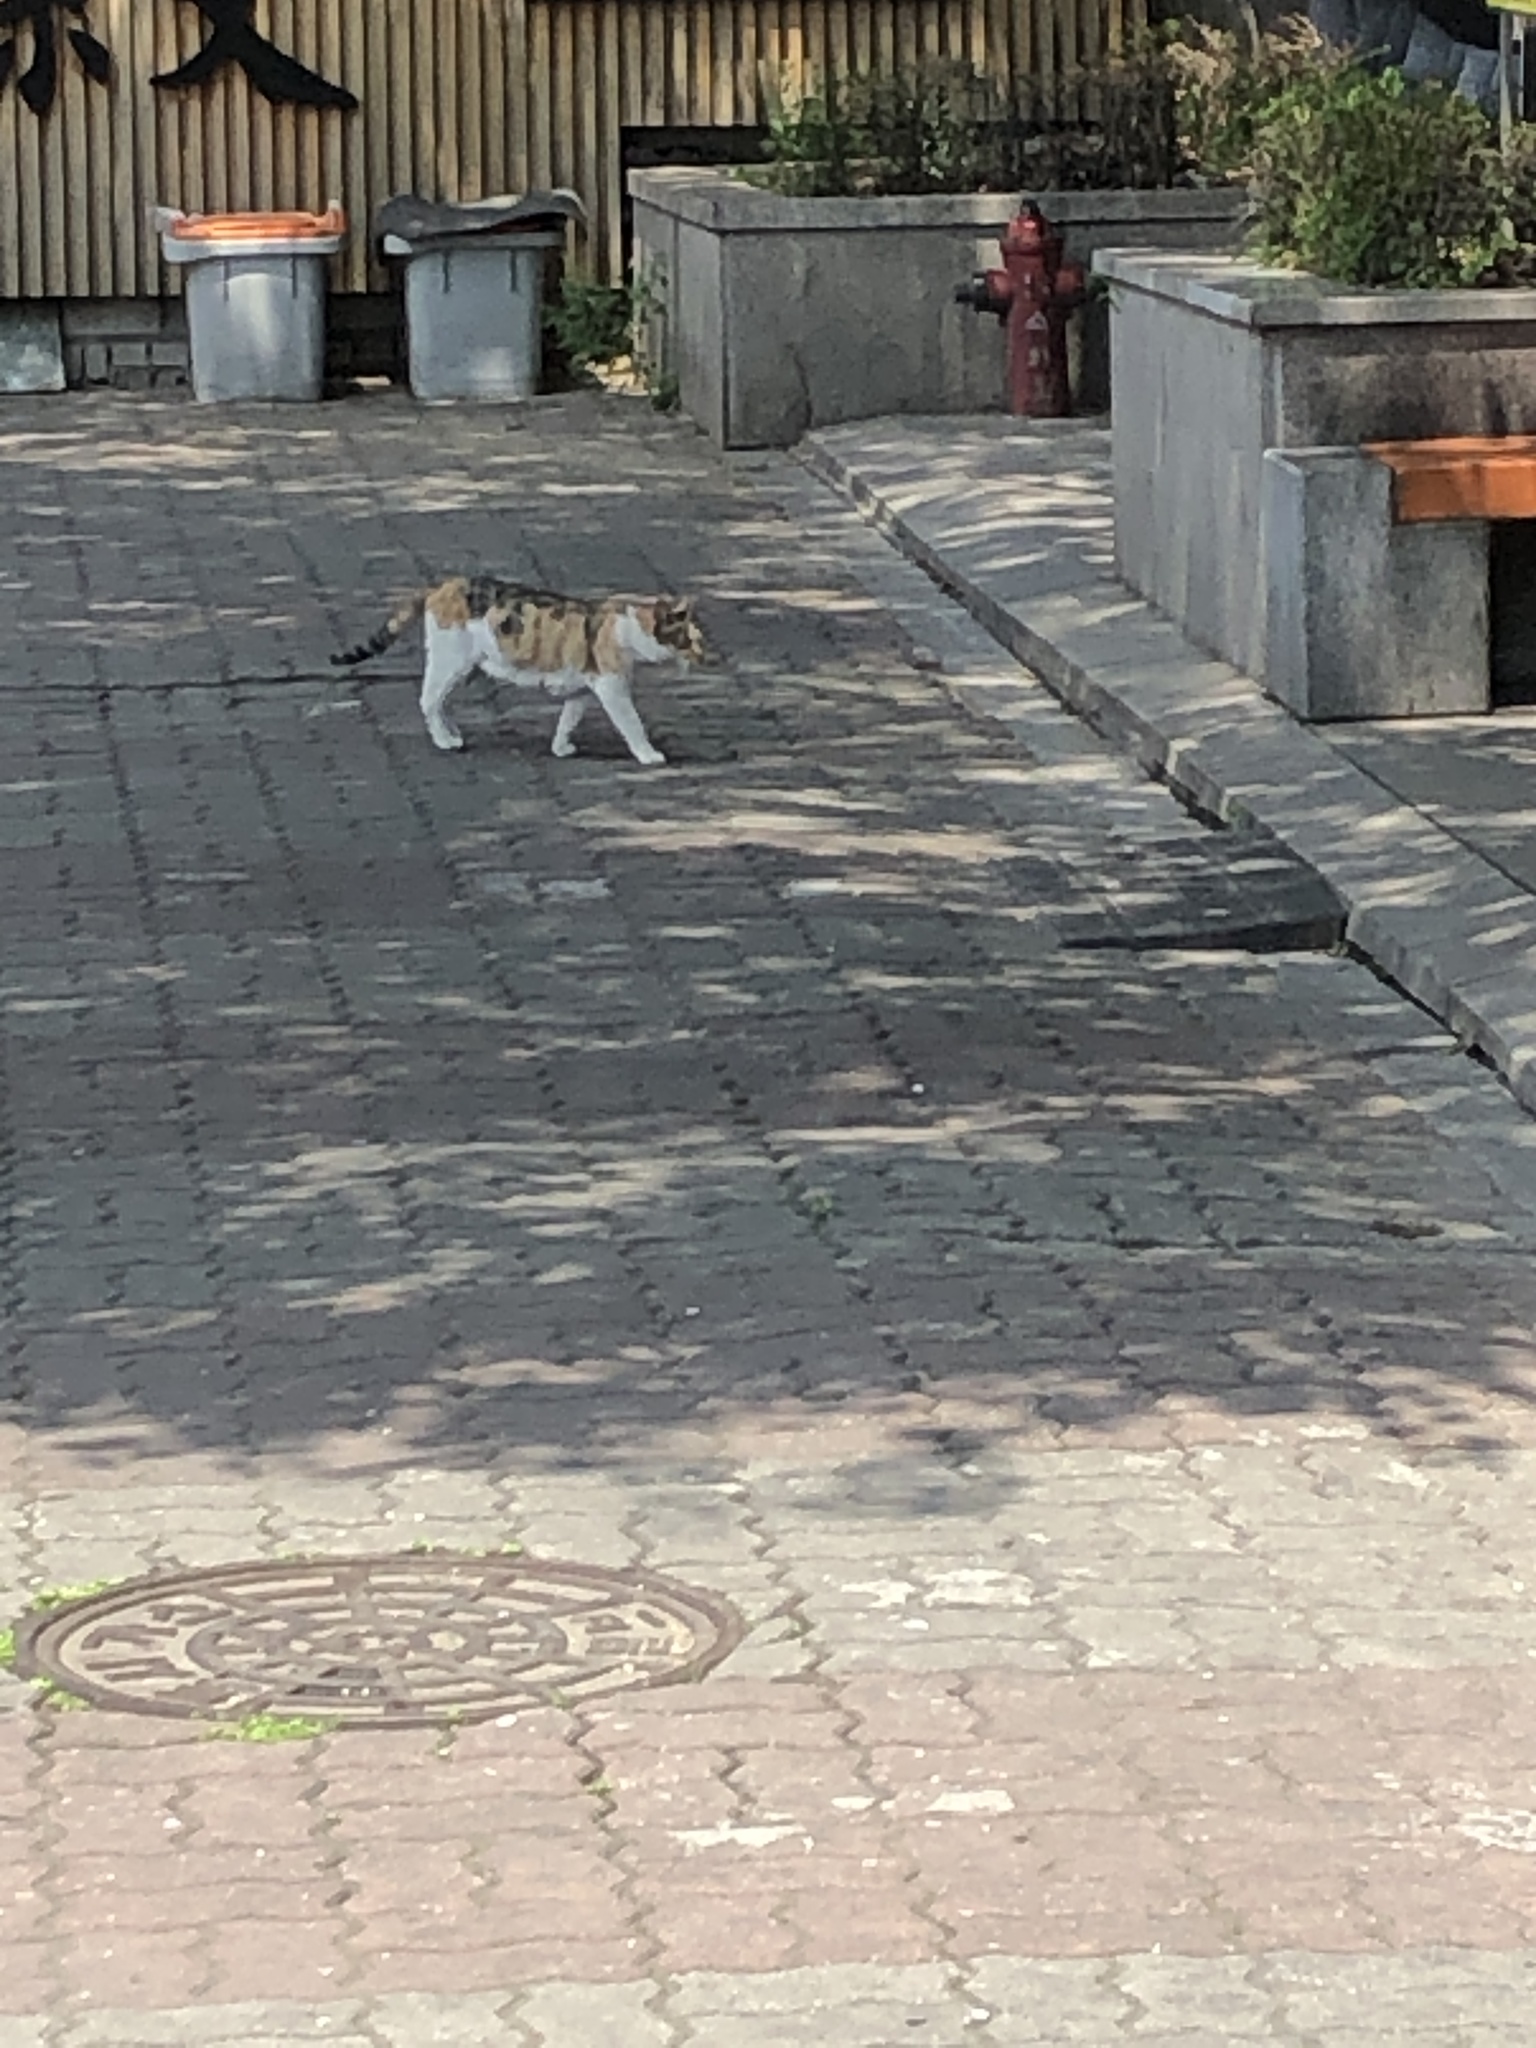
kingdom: Animalia
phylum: Chordata
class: Mammalia
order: Carnivora
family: Felidae
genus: Felis
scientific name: Felis catus
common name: Domestic cat
